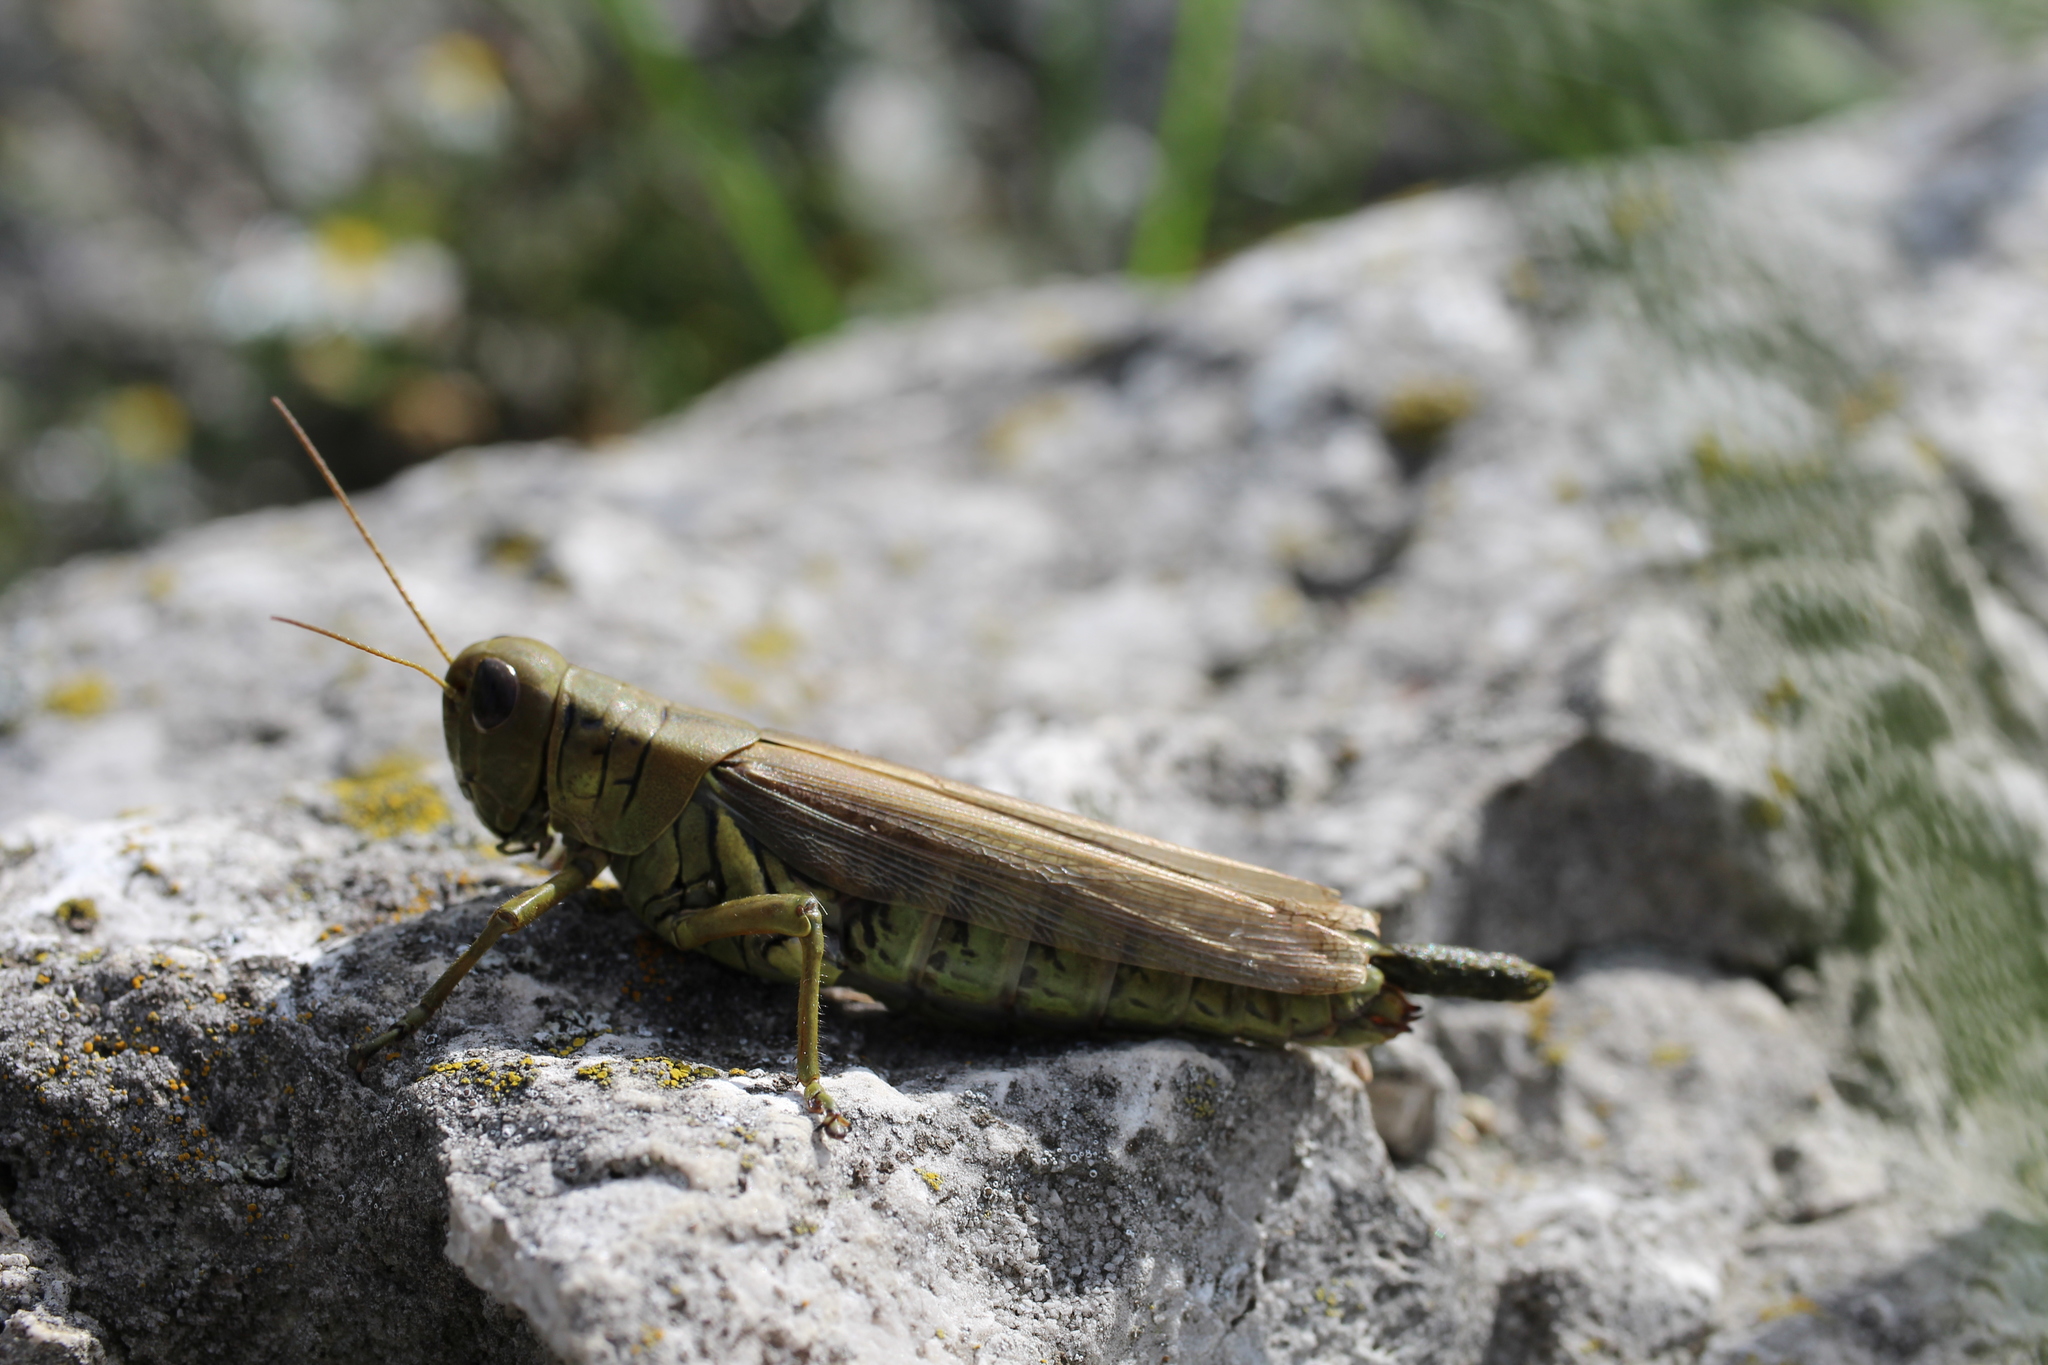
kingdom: Animalia
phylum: Arthropoda
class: Insecta
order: Orthoptera
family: Acrididae
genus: Melanoplus
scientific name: Melanoplus differentialis
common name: Differential grasshopper
